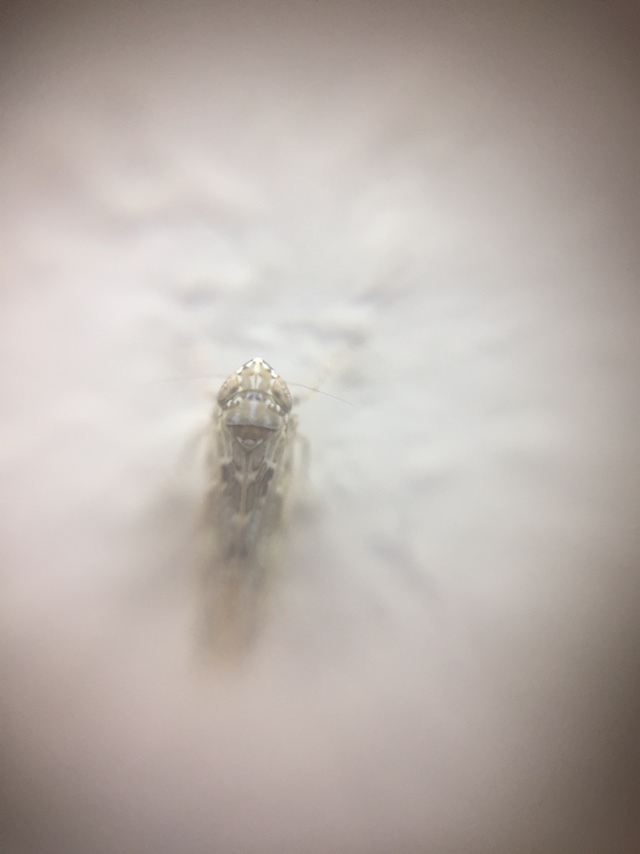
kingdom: Animalia
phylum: Arthropoda
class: Insecta
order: Hemiptera
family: Cicadellidae
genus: Matsumuratettix
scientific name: Matsumuratettix
